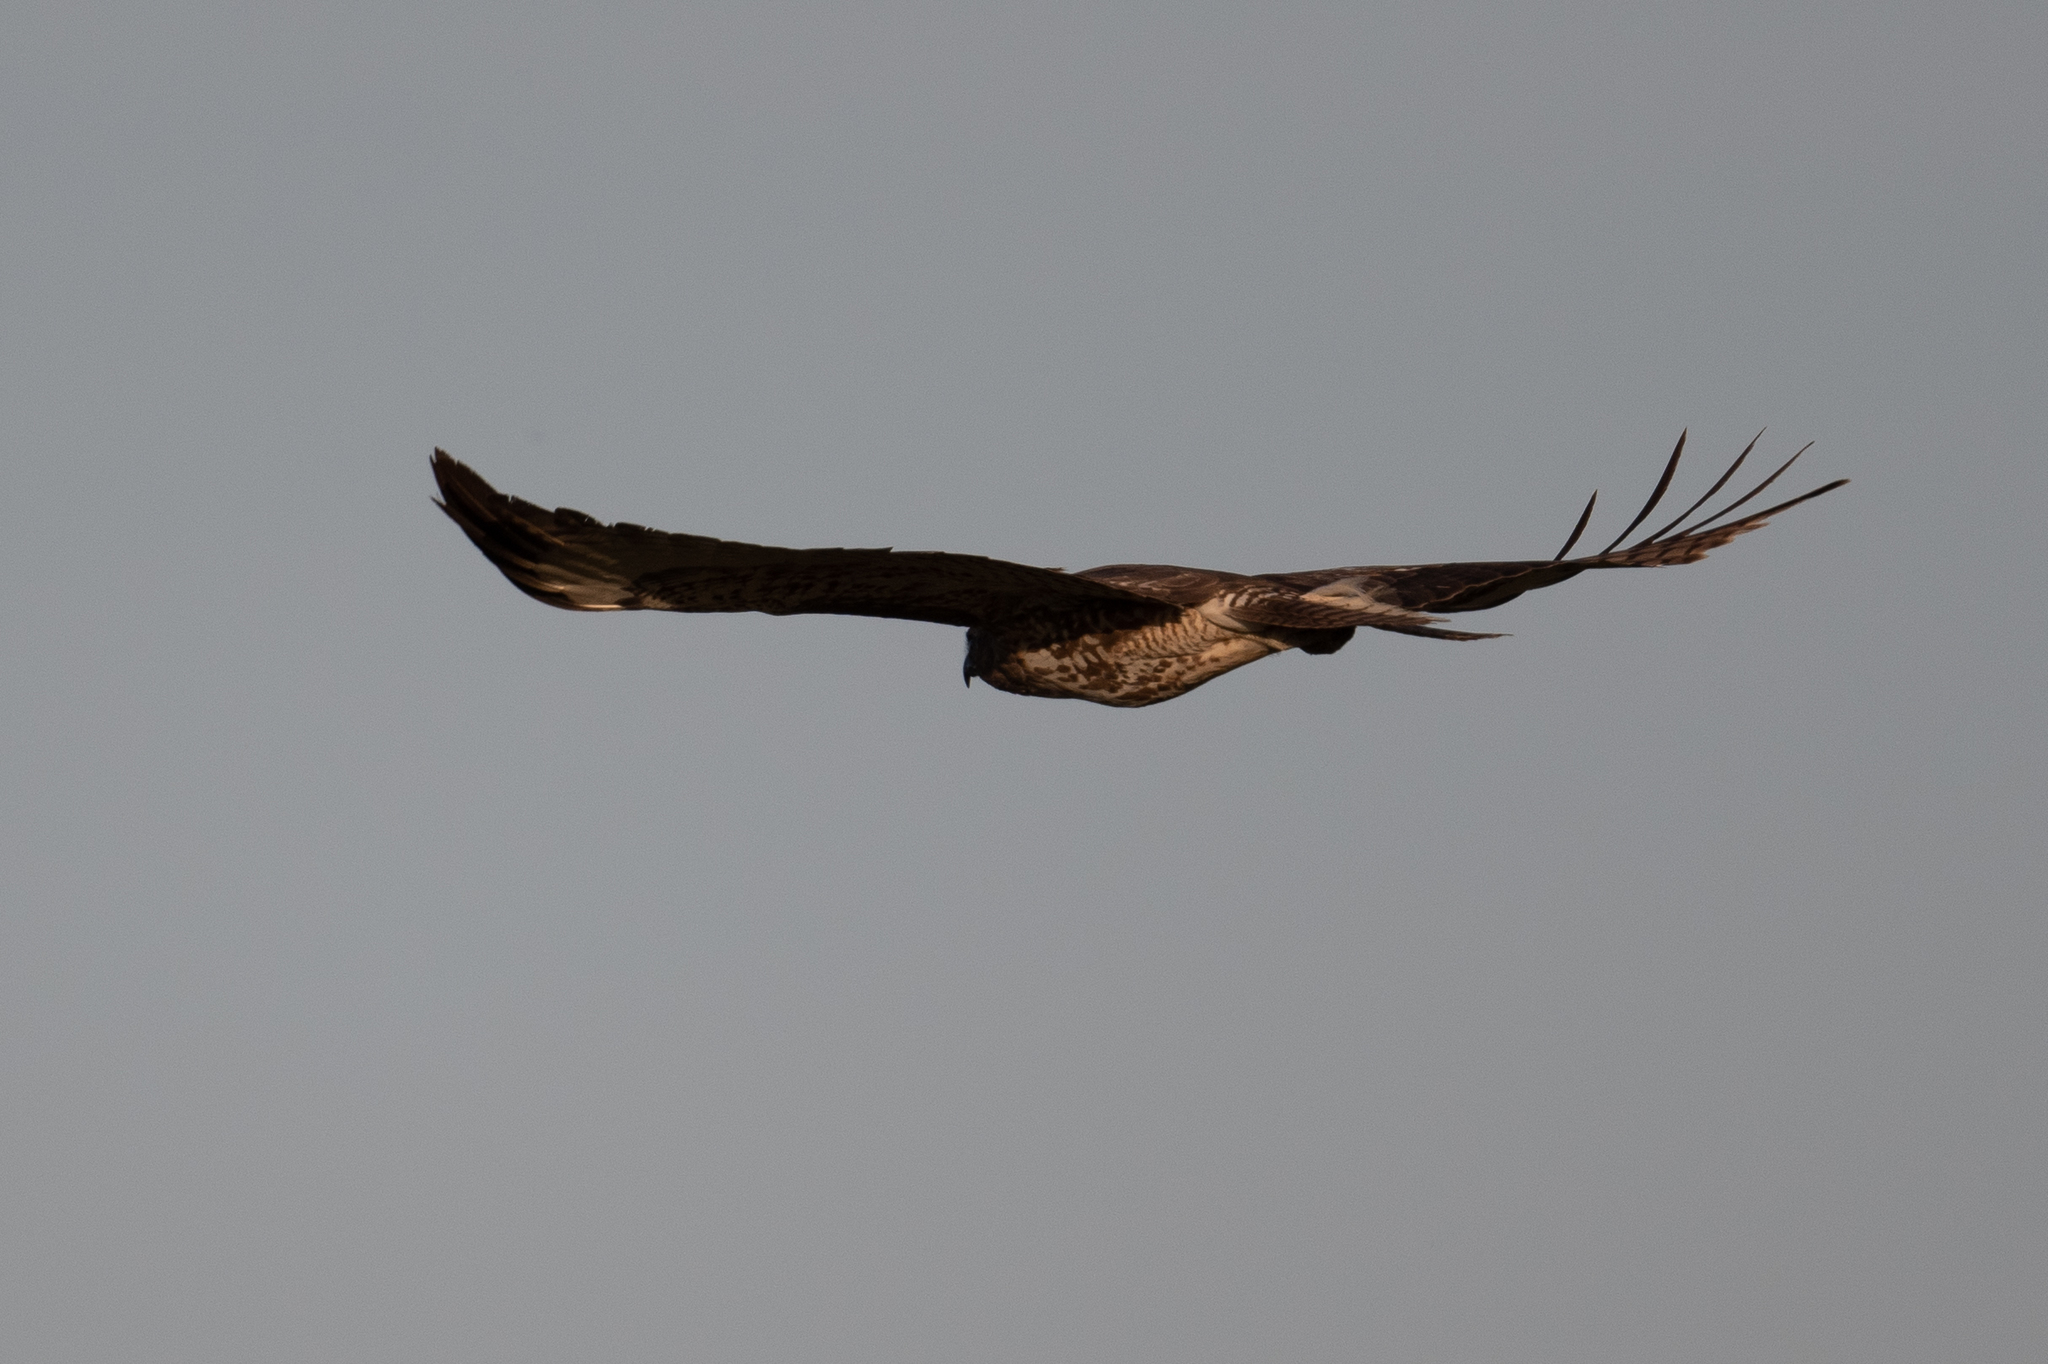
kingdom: Animalia
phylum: Chordata
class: Aves
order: Accipitriformes
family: Accipitridae
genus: Buteo
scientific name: Buteo jamaicensis
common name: Red-tailed hawk
